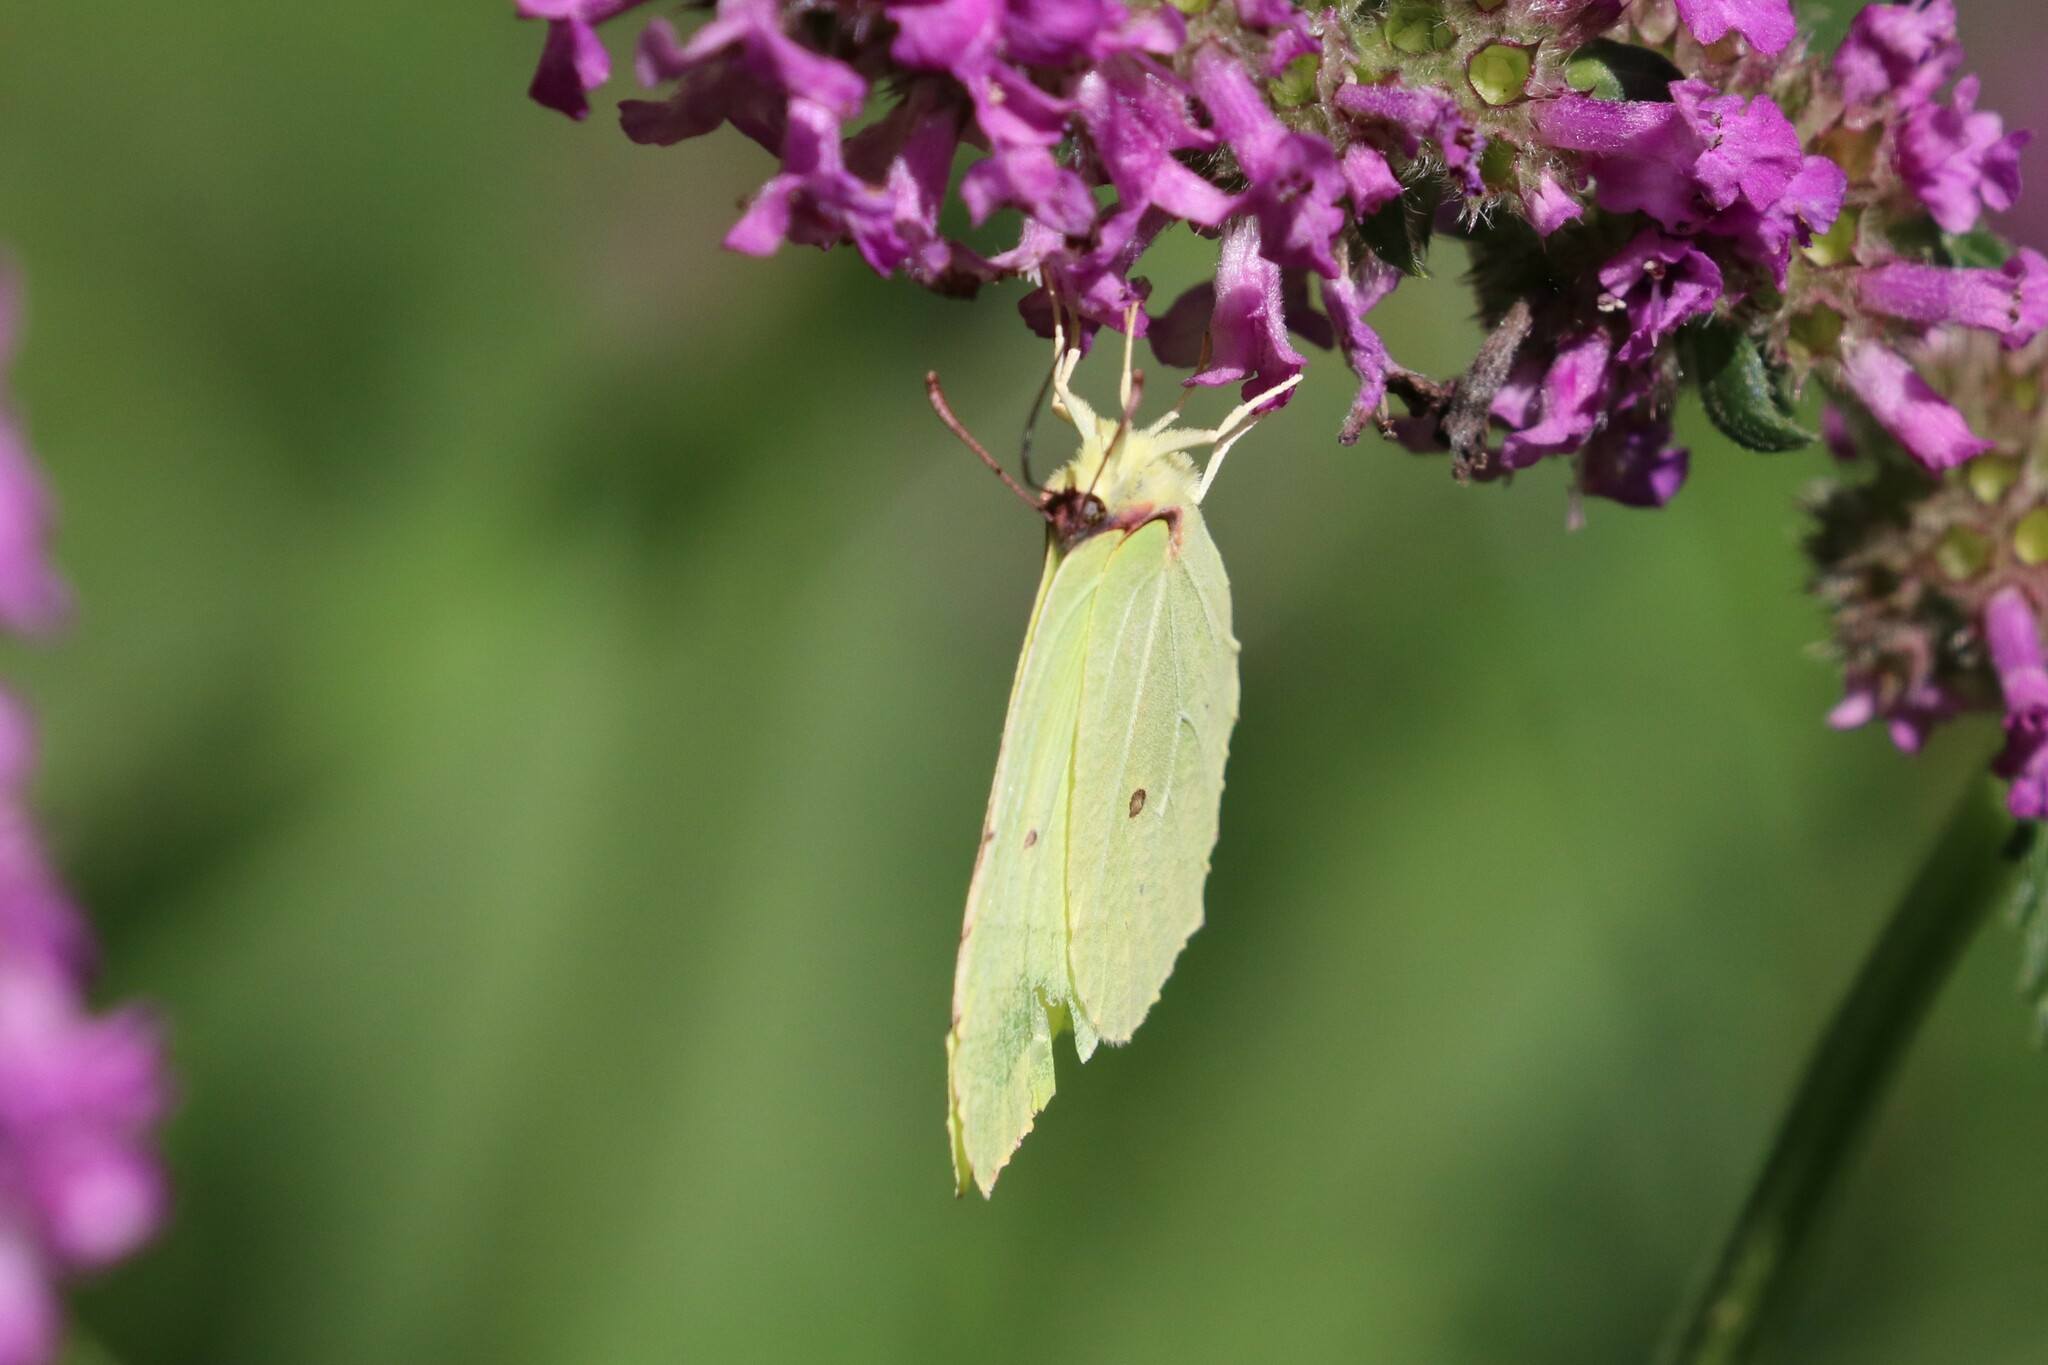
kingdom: Animalia
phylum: Arthropoda
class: Insecta
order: Lepidoptera
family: Pieridae
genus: Gonepteryx
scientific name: Gonepteryx rhamni
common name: Brimstone
